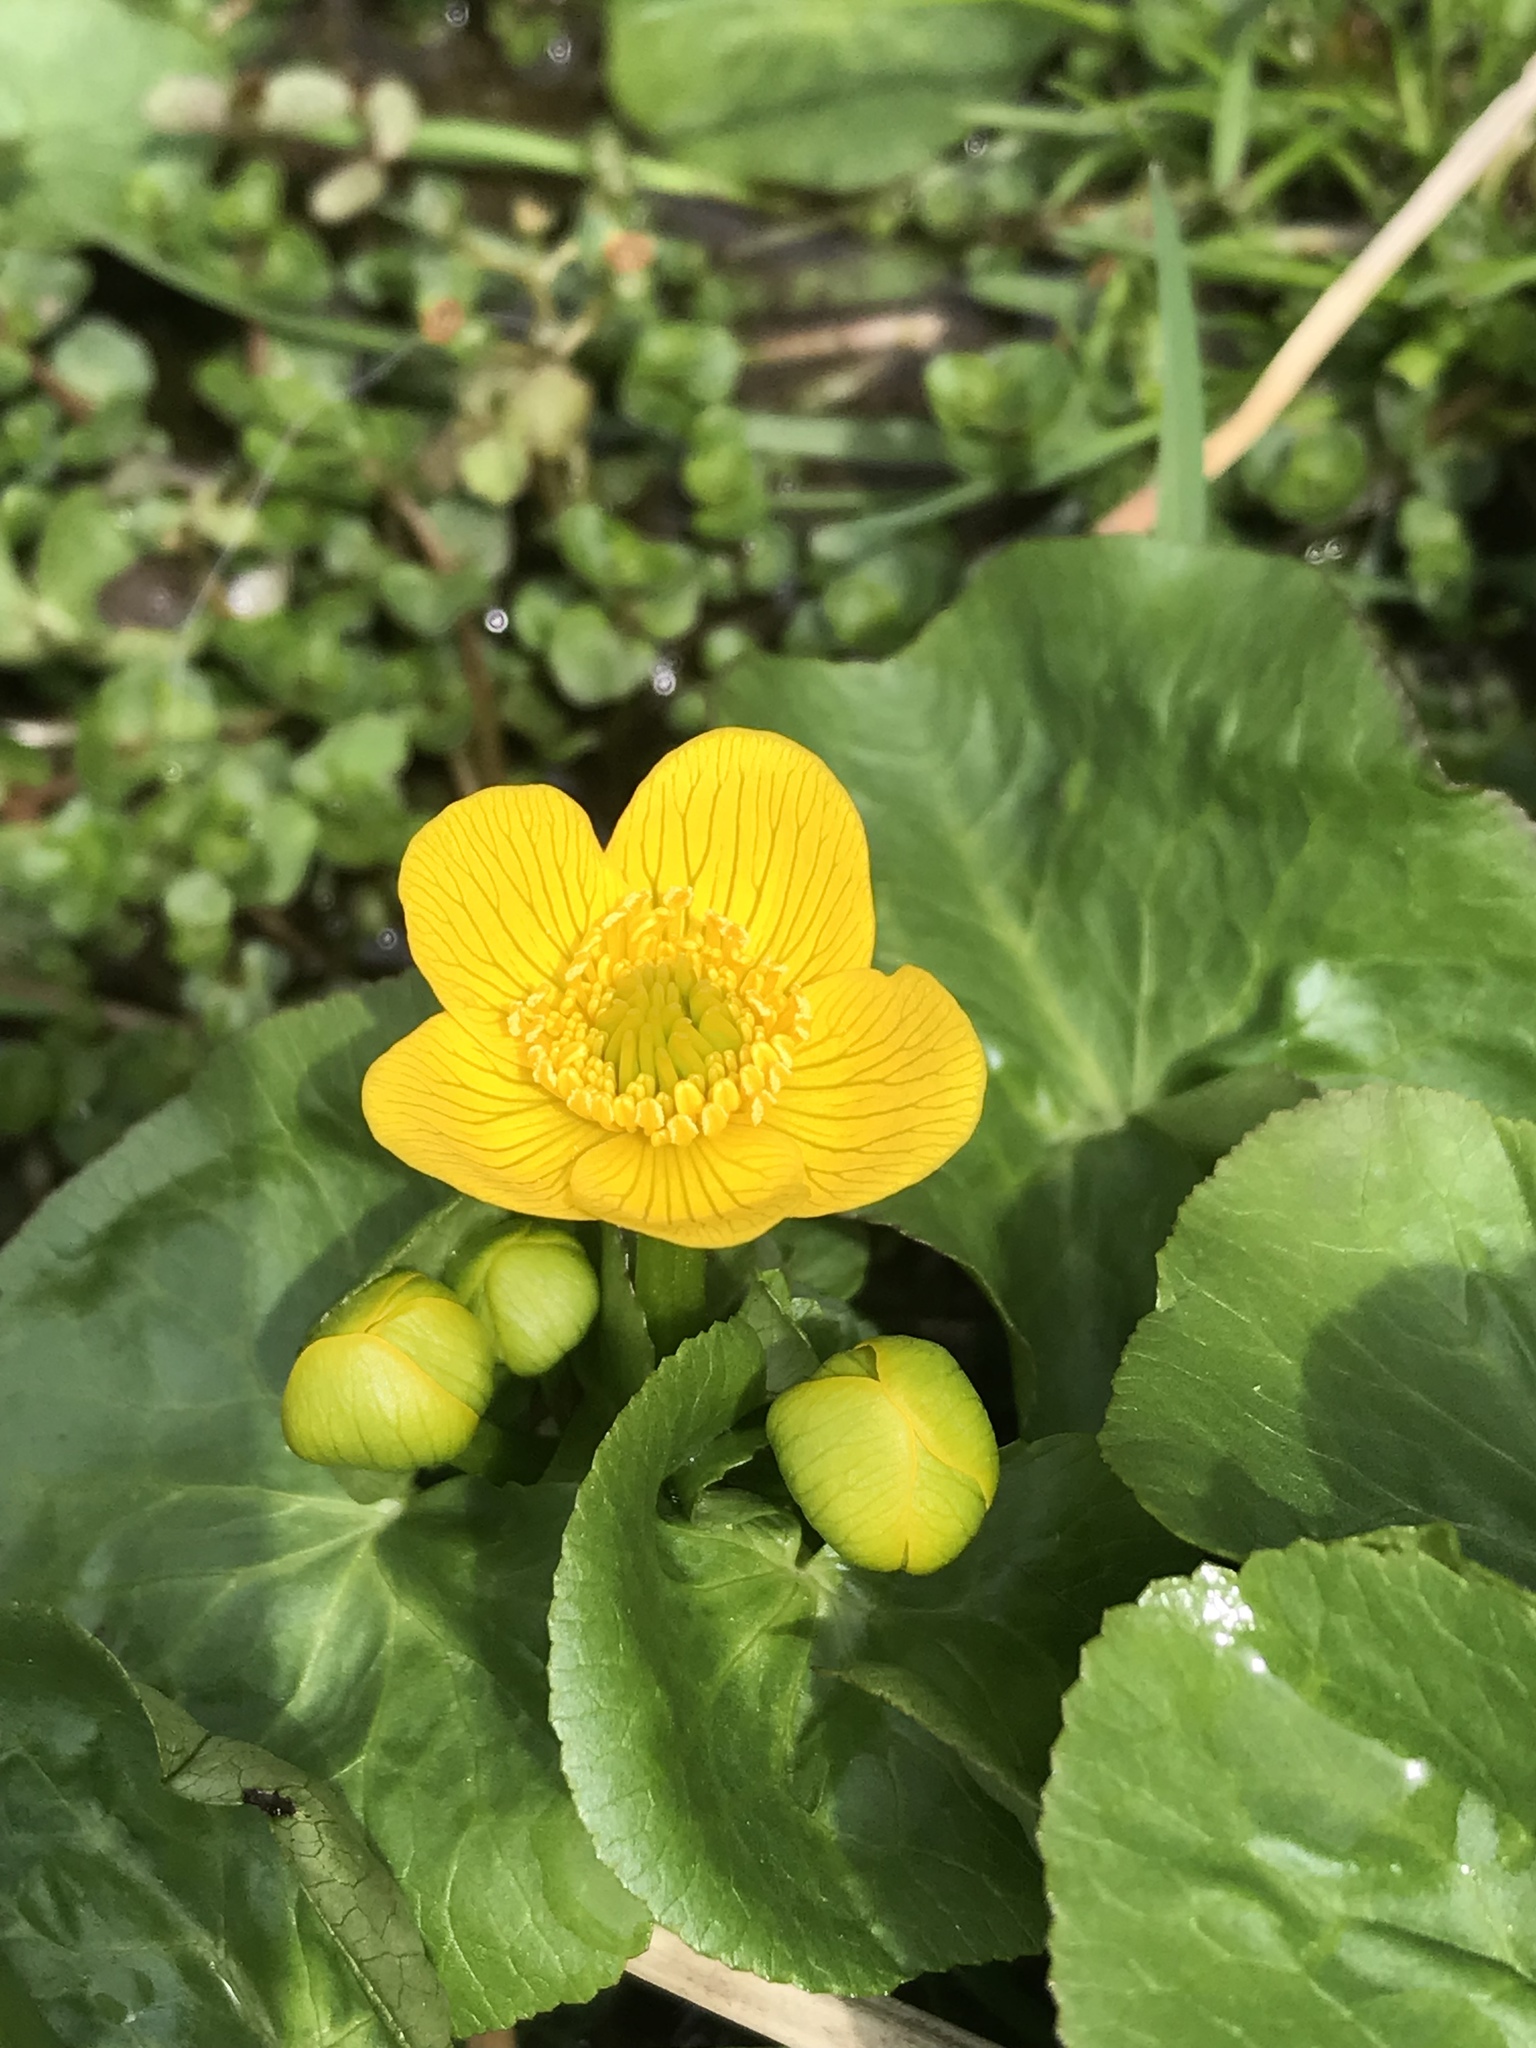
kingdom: Plantae
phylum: Tracheophyta
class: Magnoliopsida
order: Ranunculales
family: Ranunculaceae
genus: Caltha
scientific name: Caltha palustris
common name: Marsh marigold
